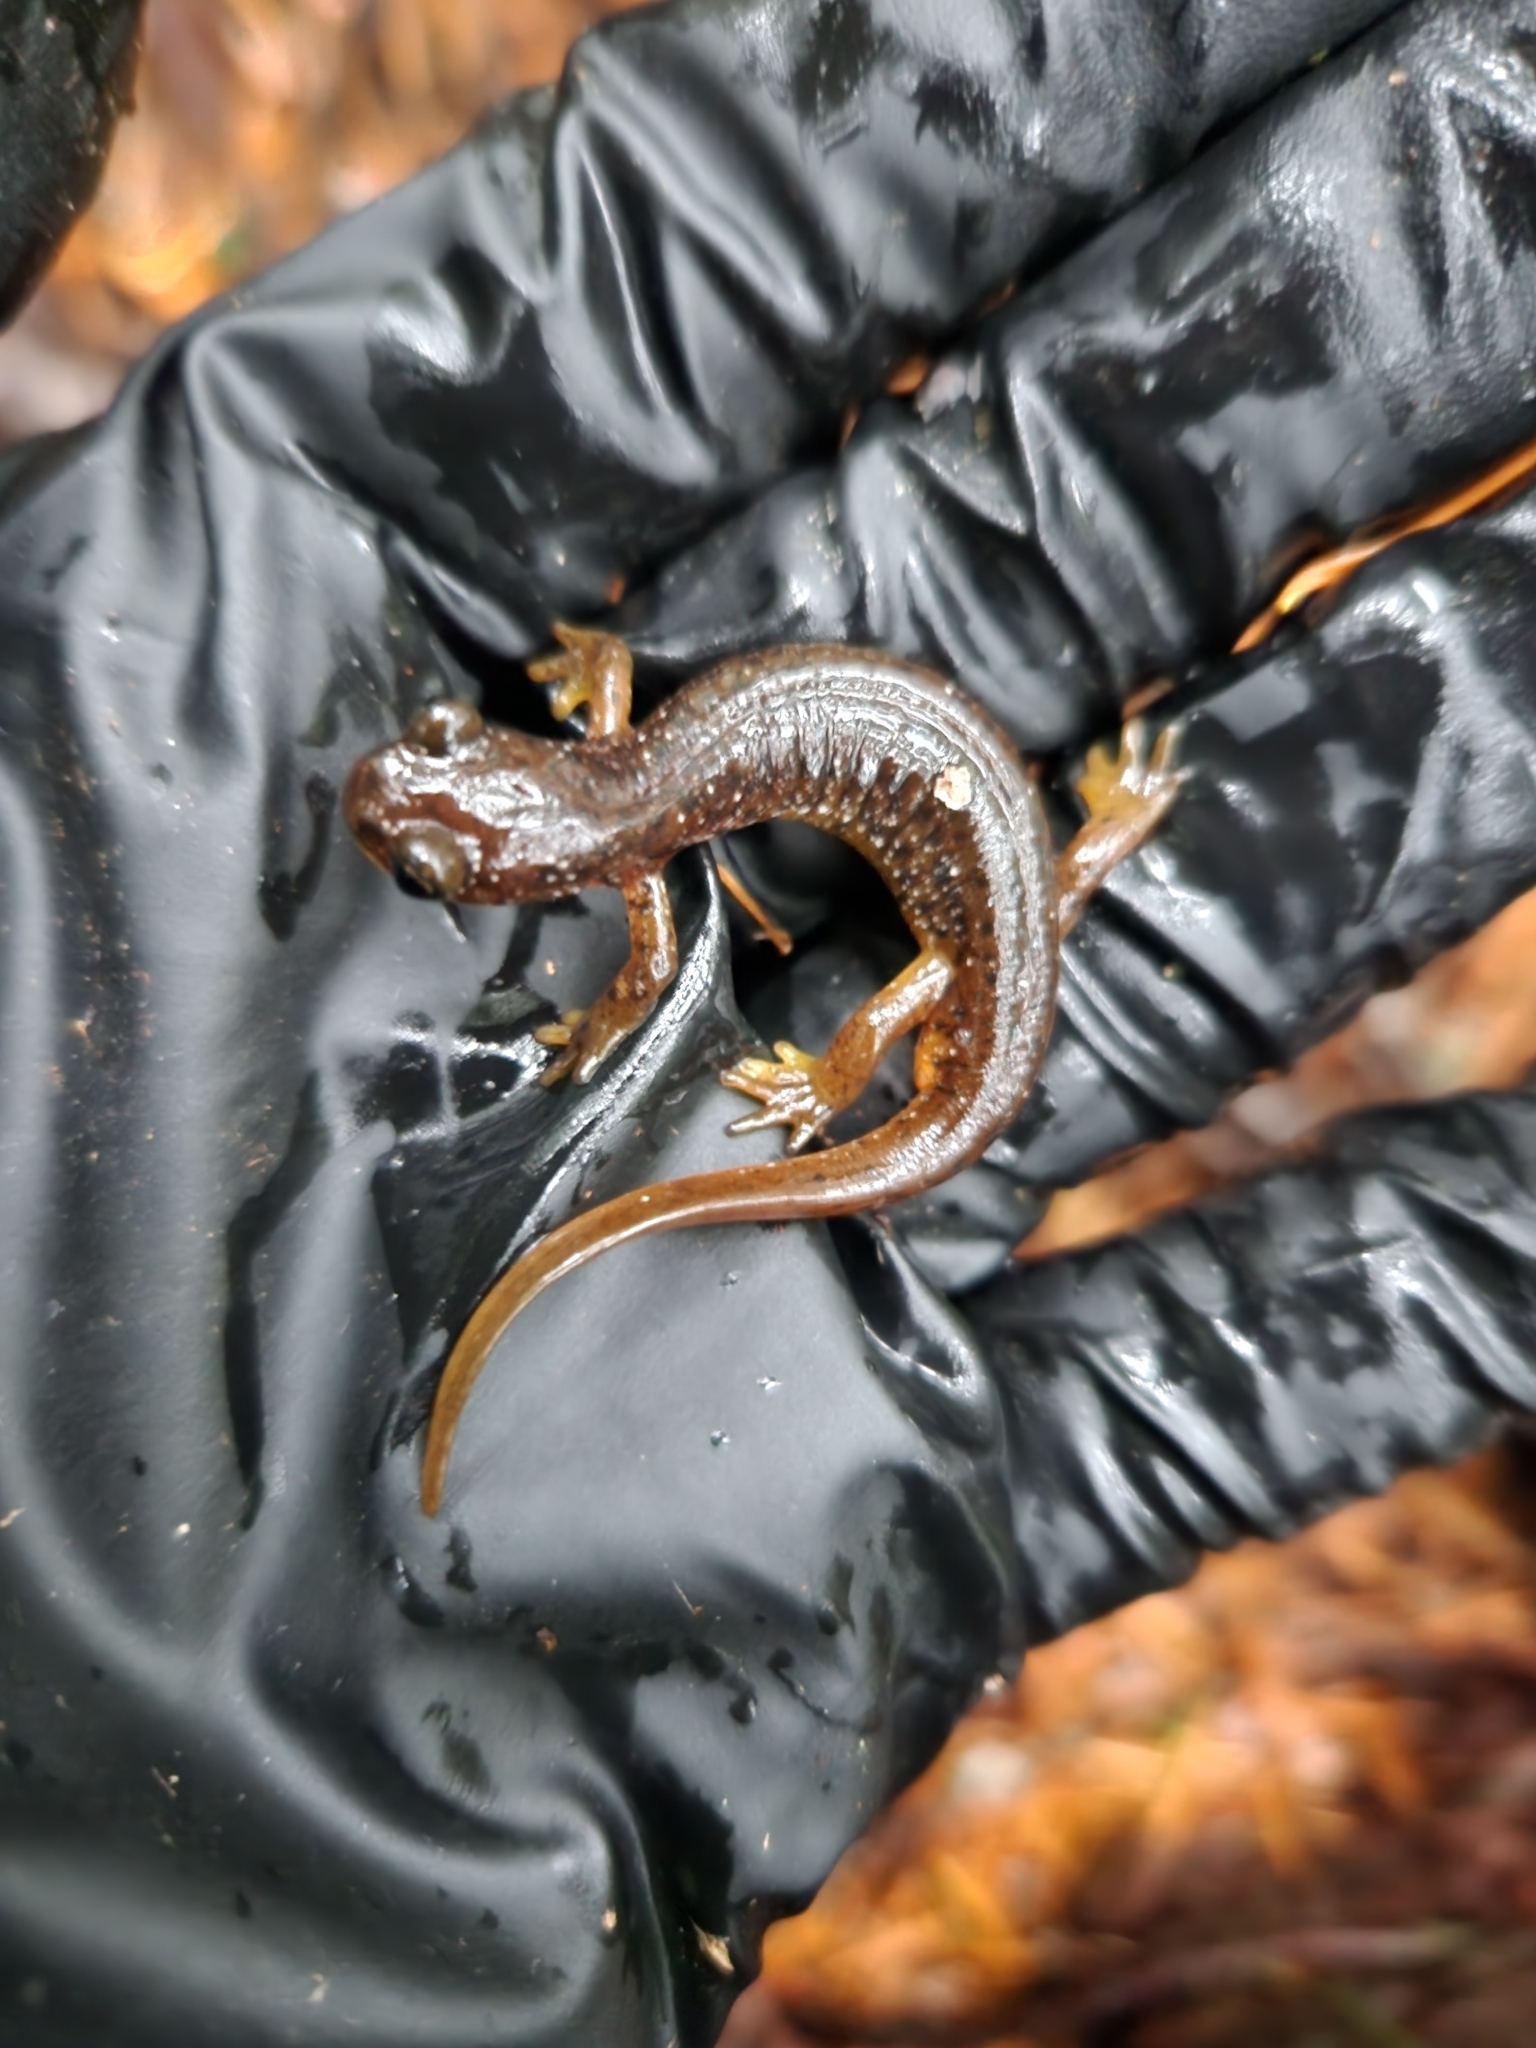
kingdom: Animalia
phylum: Chordata
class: Amphibia
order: Caudata
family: Rhyacotritonidae
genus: Rhyacotriton
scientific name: Rhyacotriton cascadae
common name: Cascade torrent salamander
